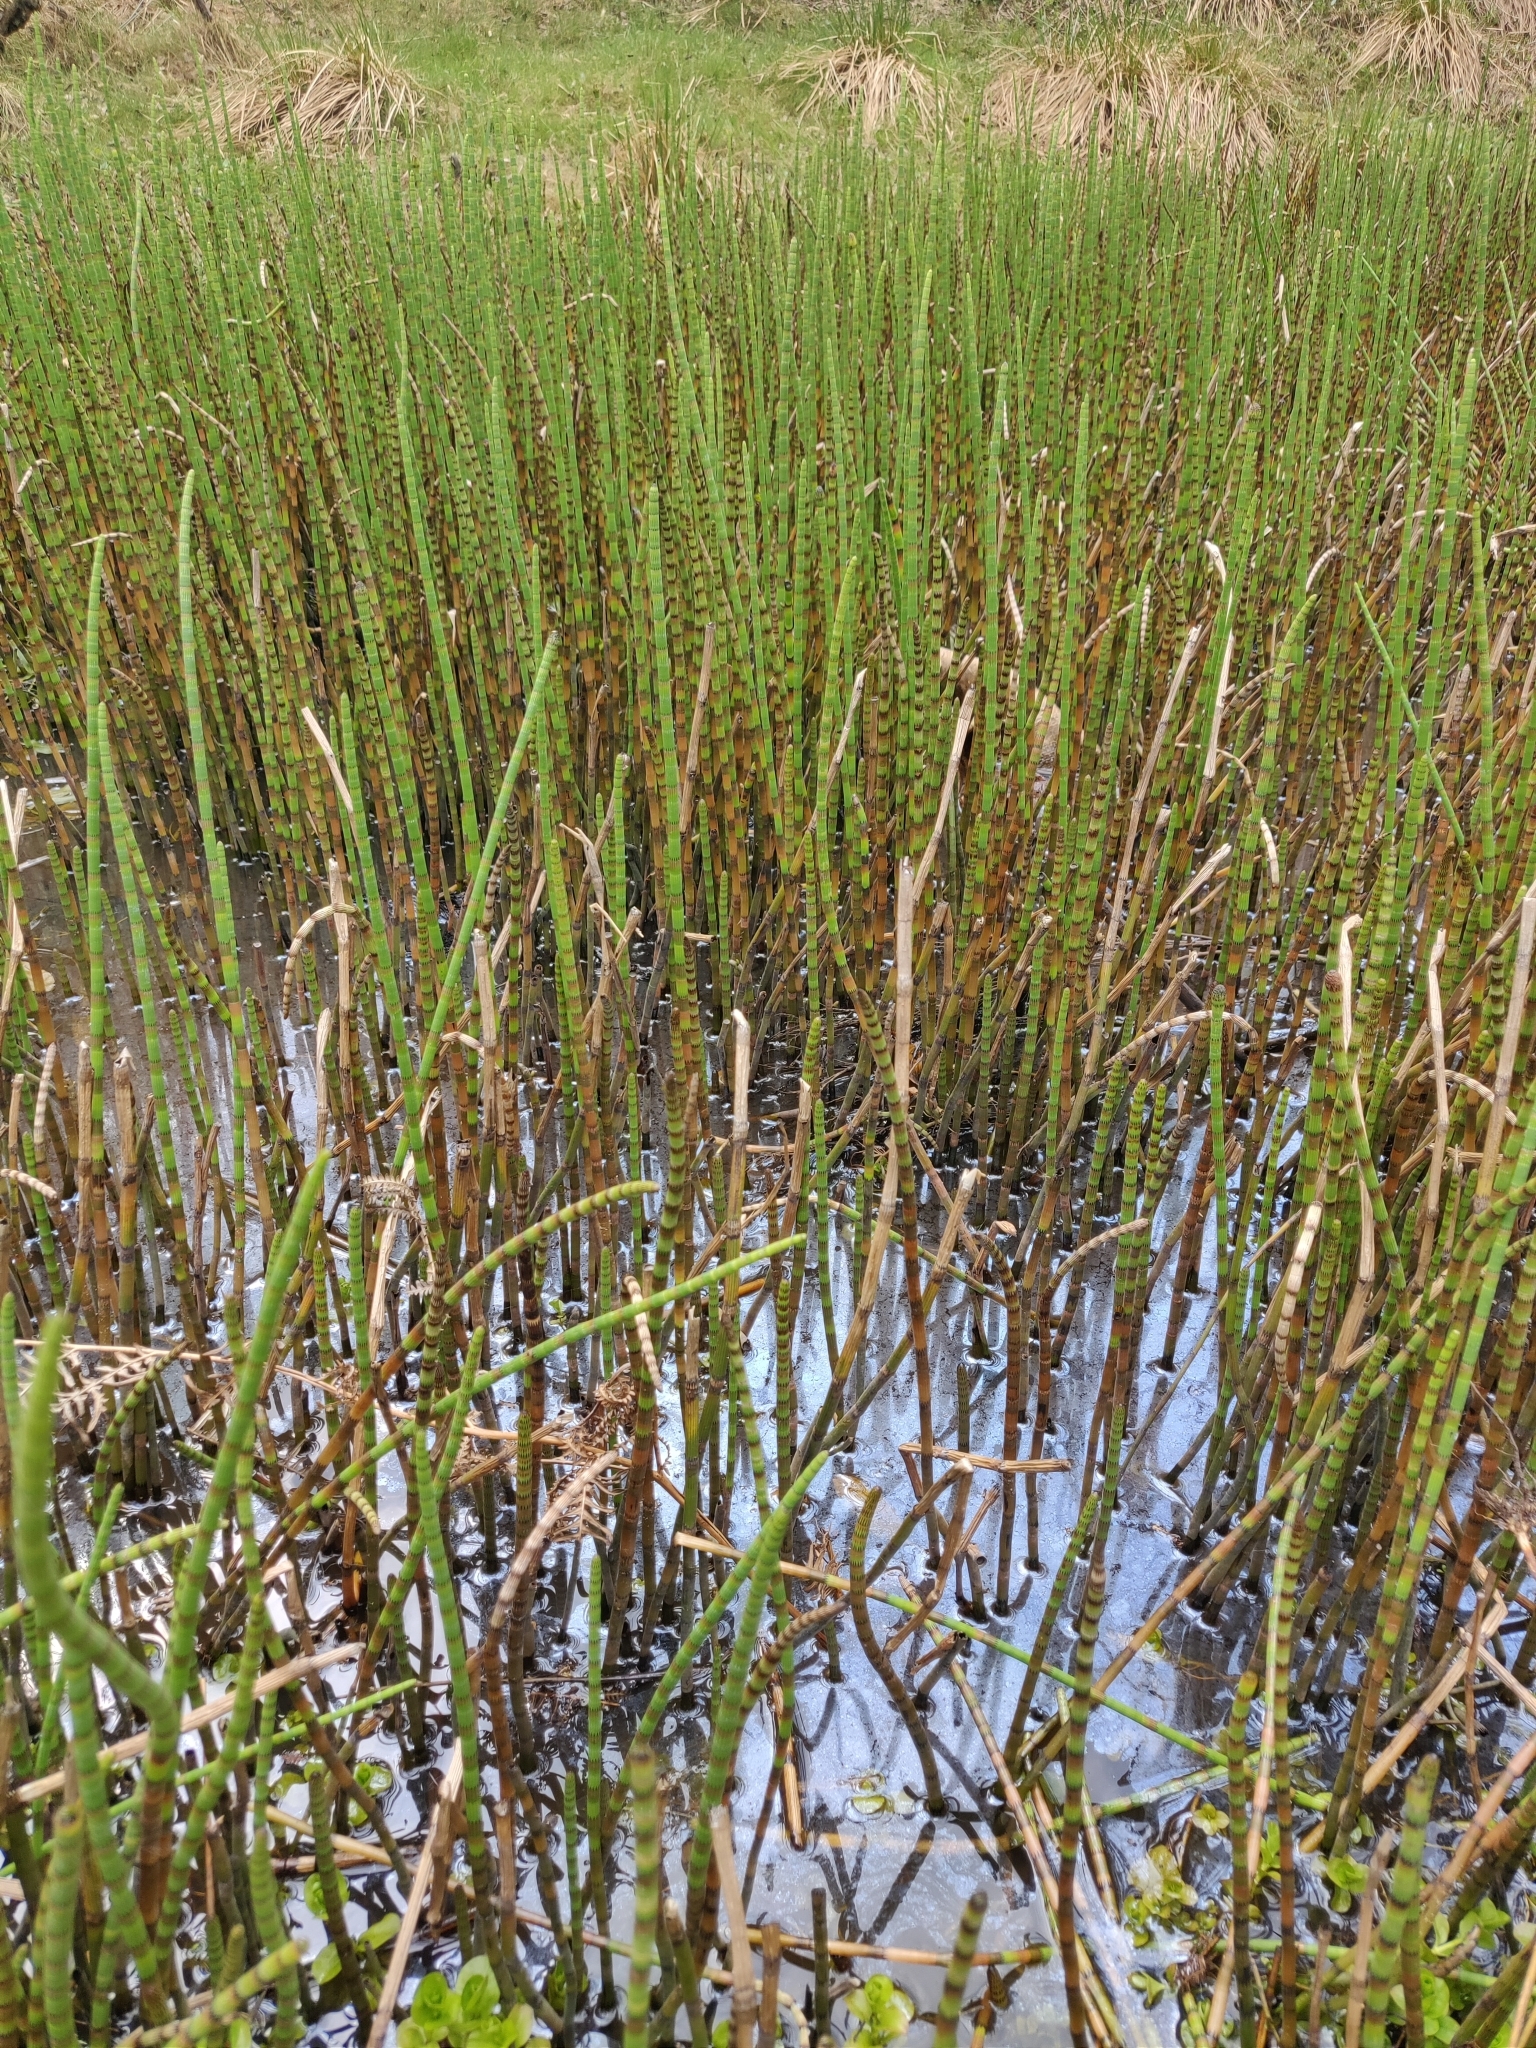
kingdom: Plantae
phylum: Tracheophyta
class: Polypodiopsida
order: Equisetales
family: Equisetaceae
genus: Equisetum
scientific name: Equisetum fluviatile
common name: Water horsetail
